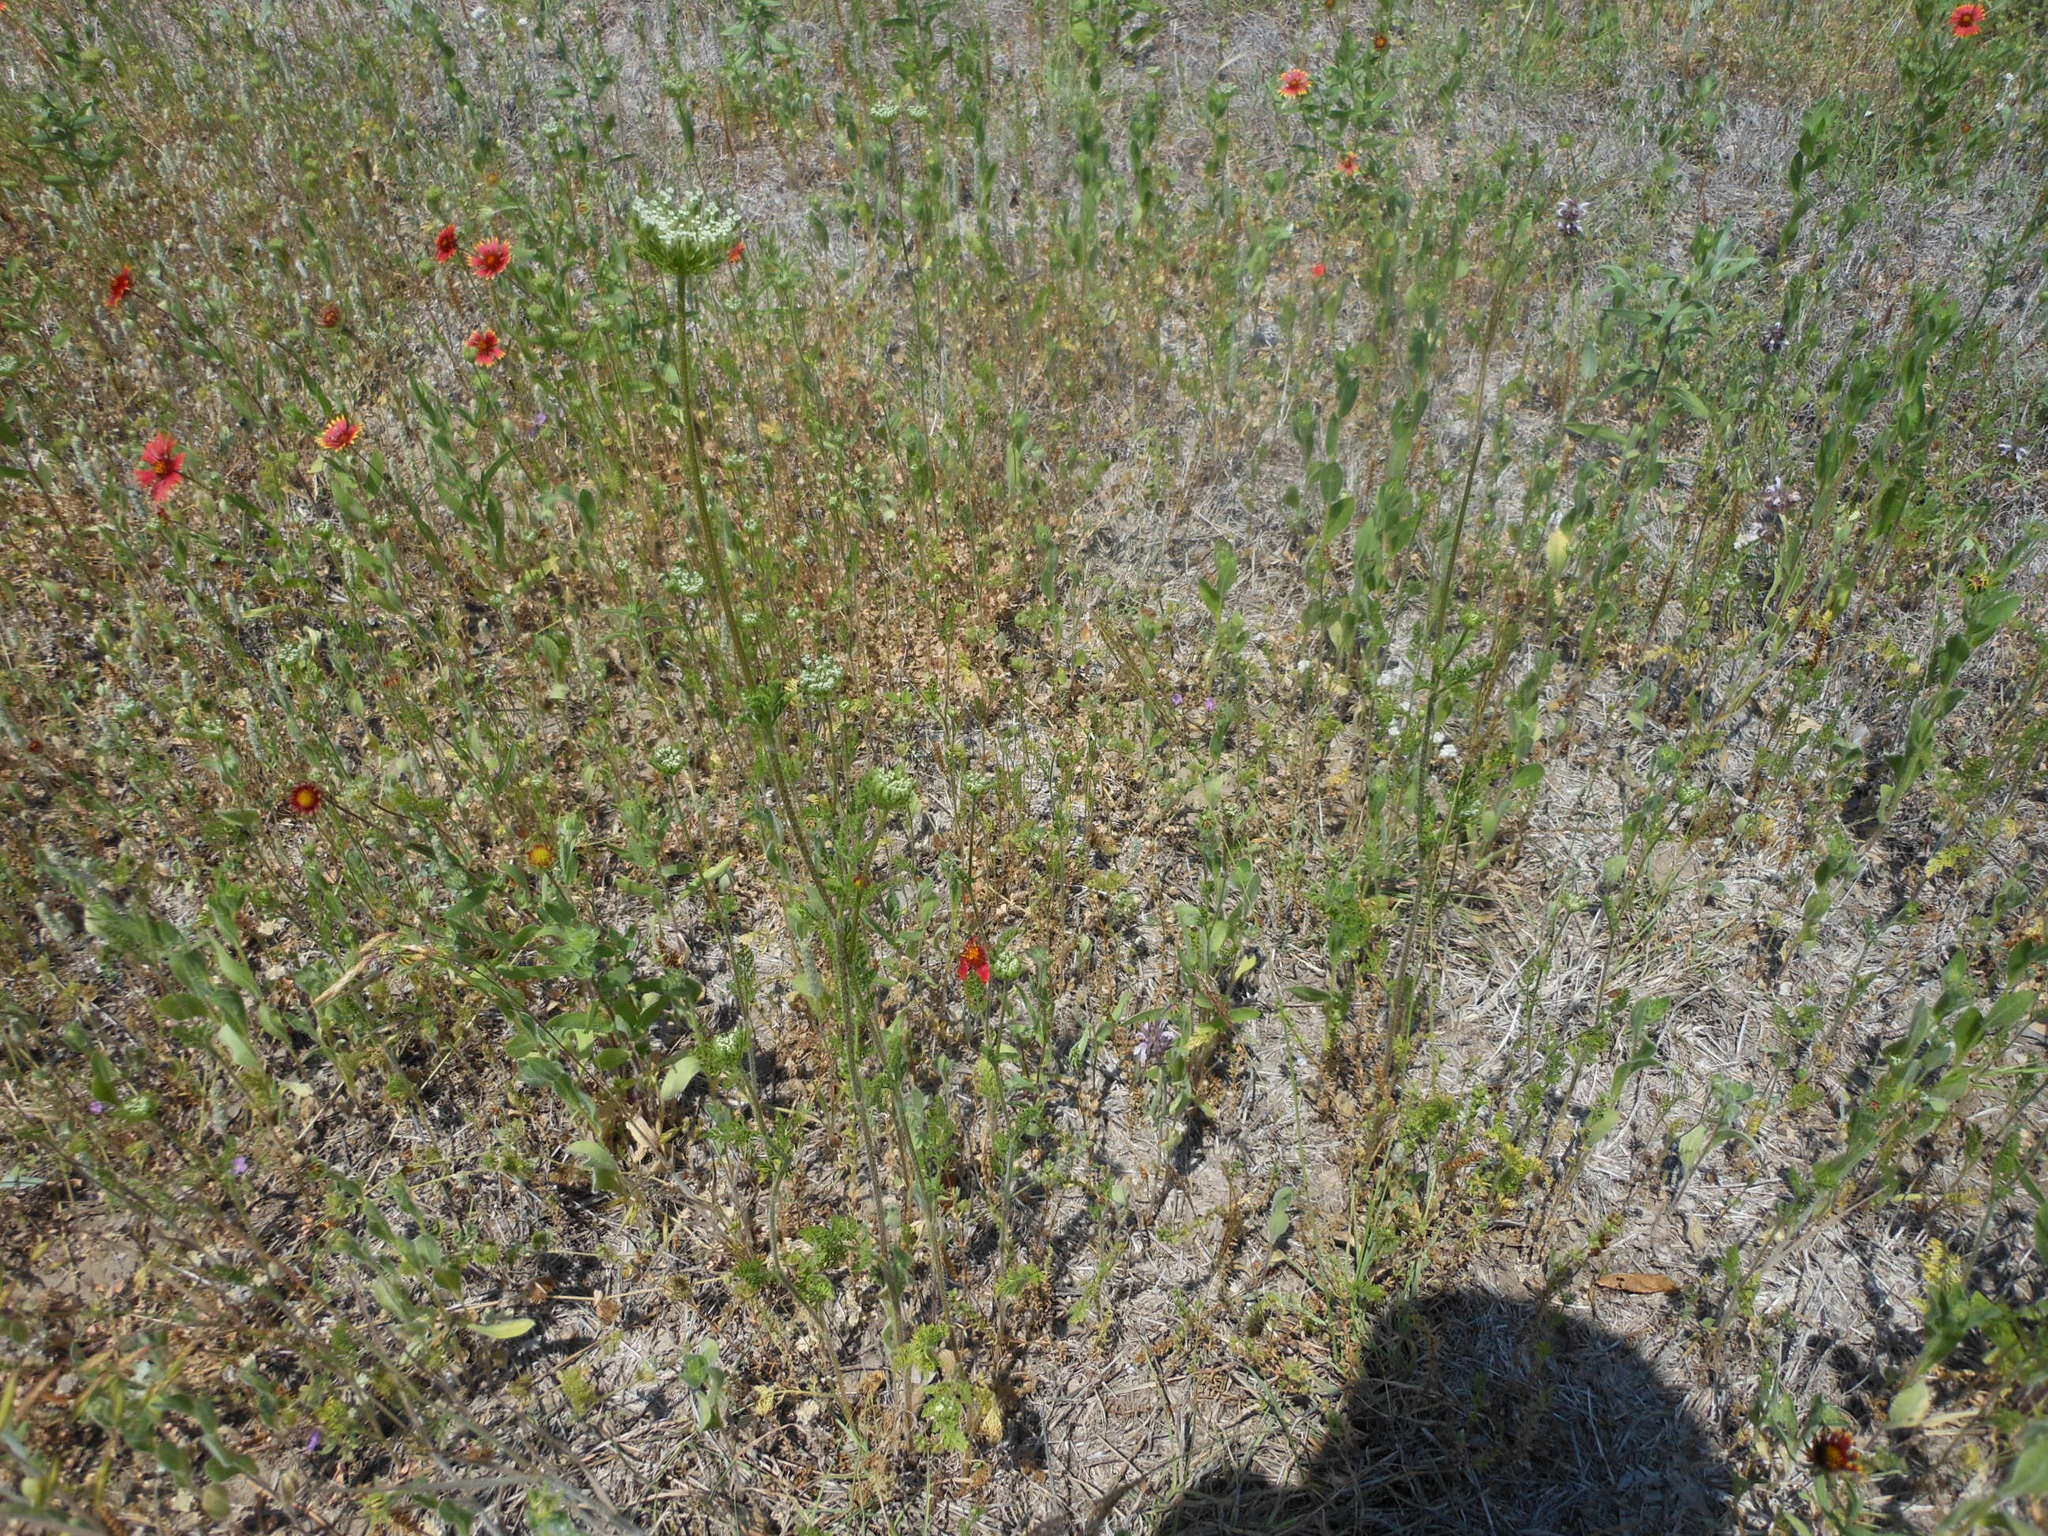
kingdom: Plantae
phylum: Tracheophyta
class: Magnoliopsida
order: Apiales
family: Apiaceae
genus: Daucus
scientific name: Daucus pusillus
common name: Southwest wild carrot
